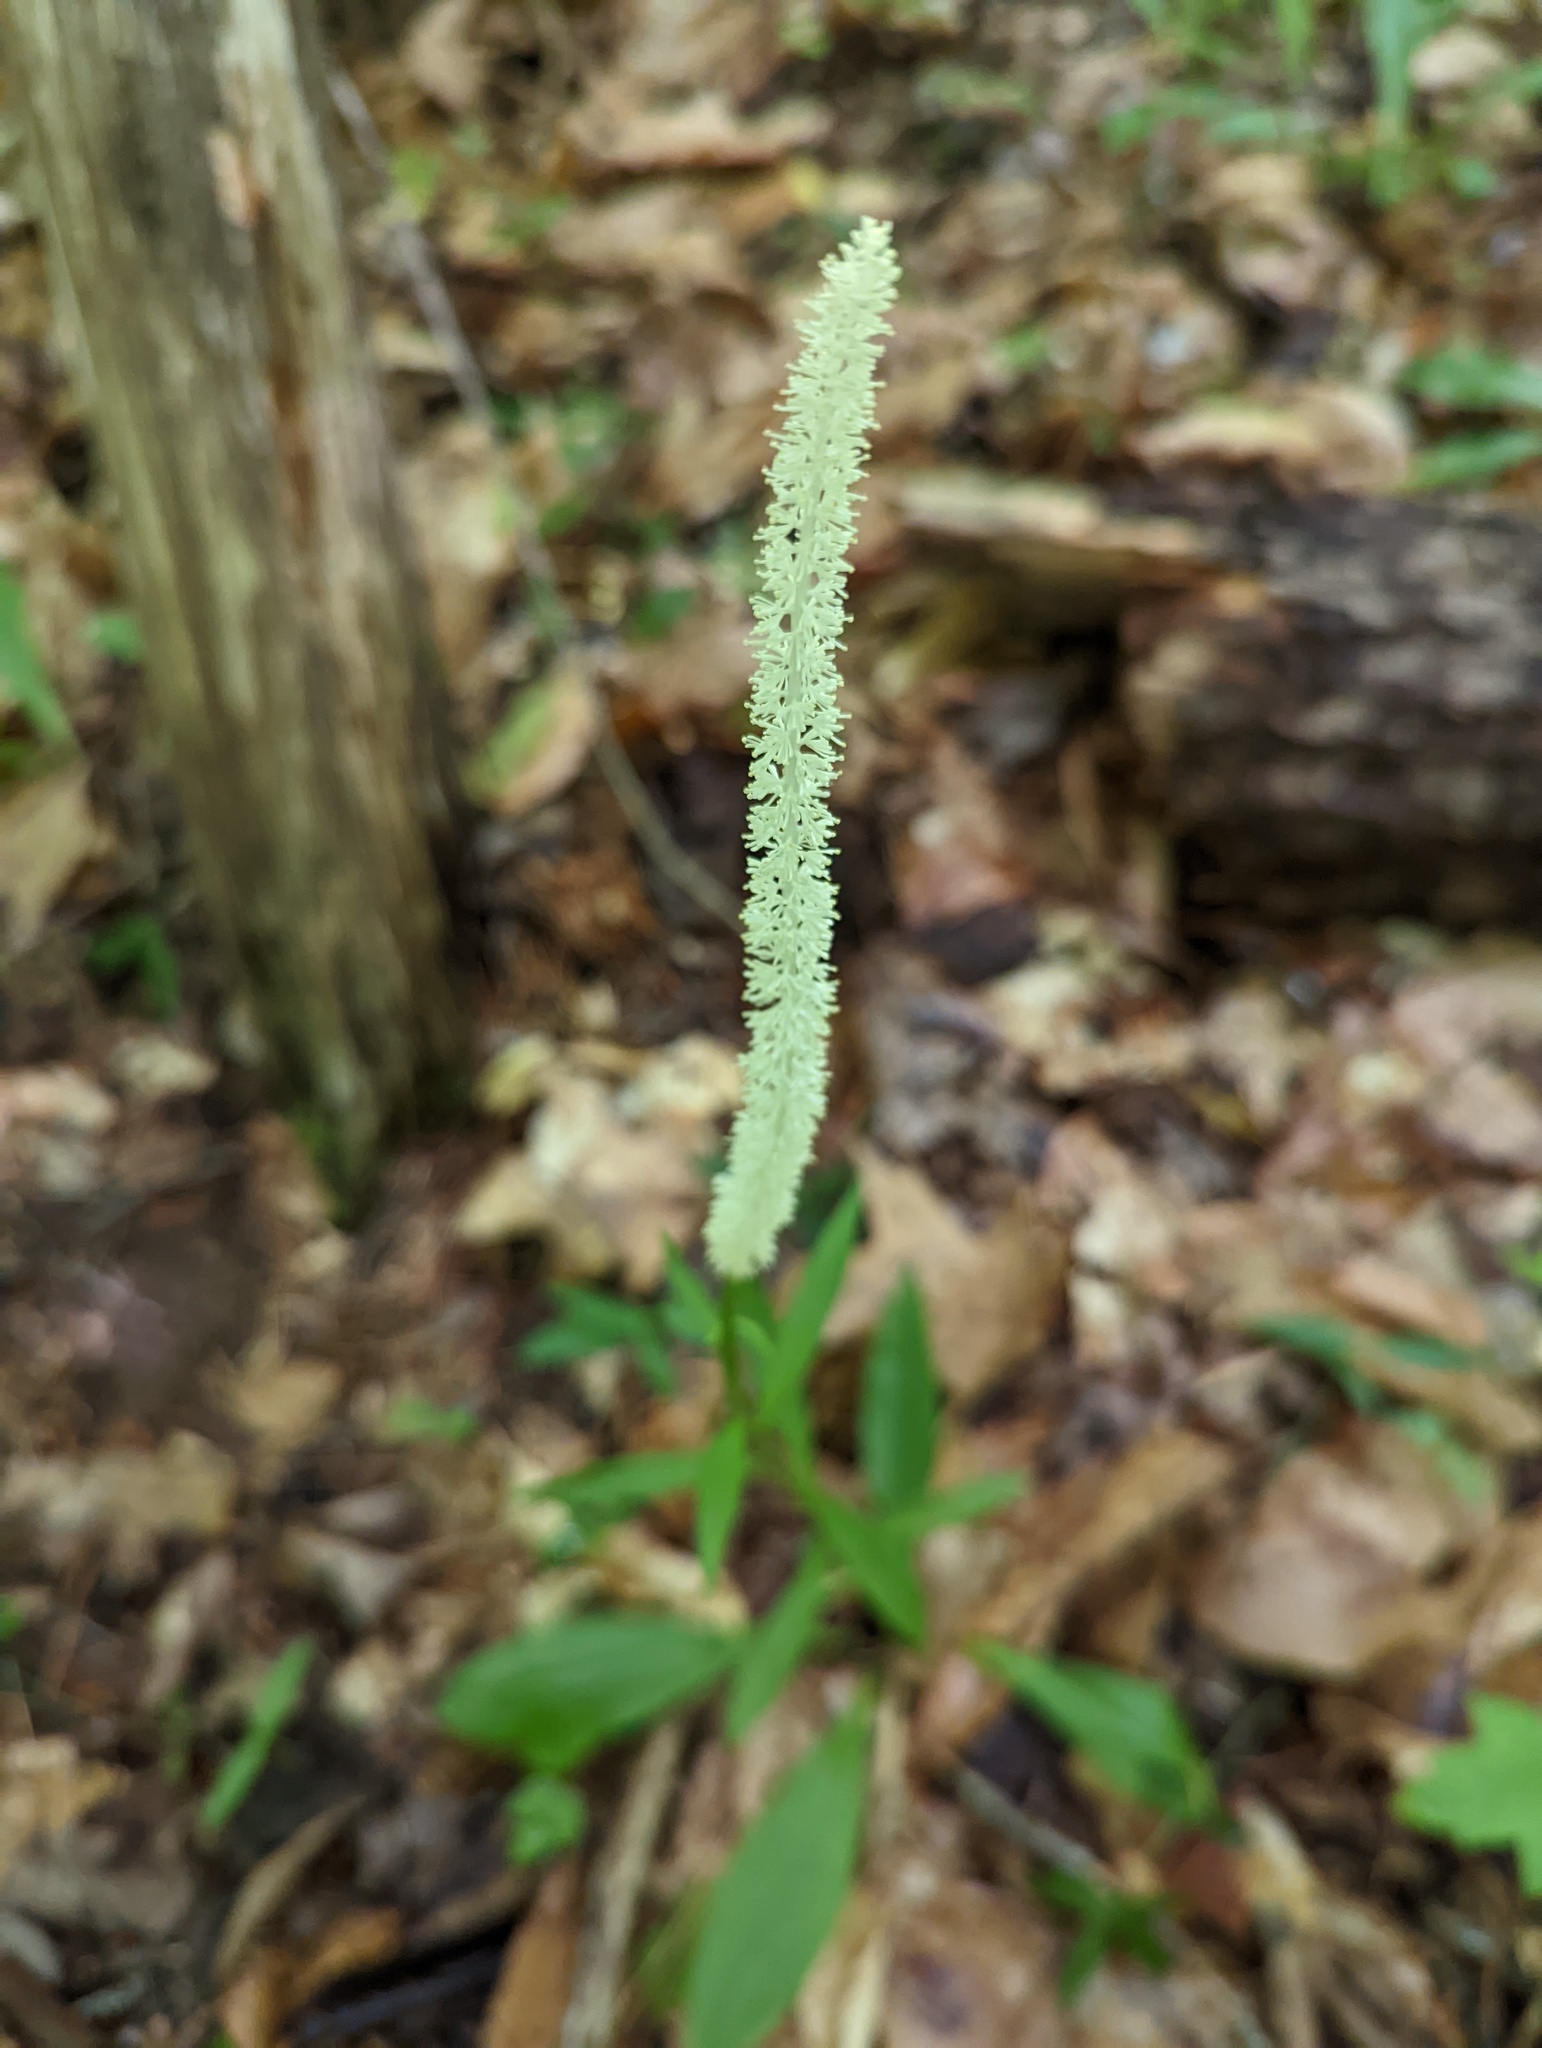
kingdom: Plantae
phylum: Tracheophyta
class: Liliopsida
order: Liliales
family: Melanthiaceae
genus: Chamaelirium
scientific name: Chamaelirium luteum
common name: Fairy-wand
